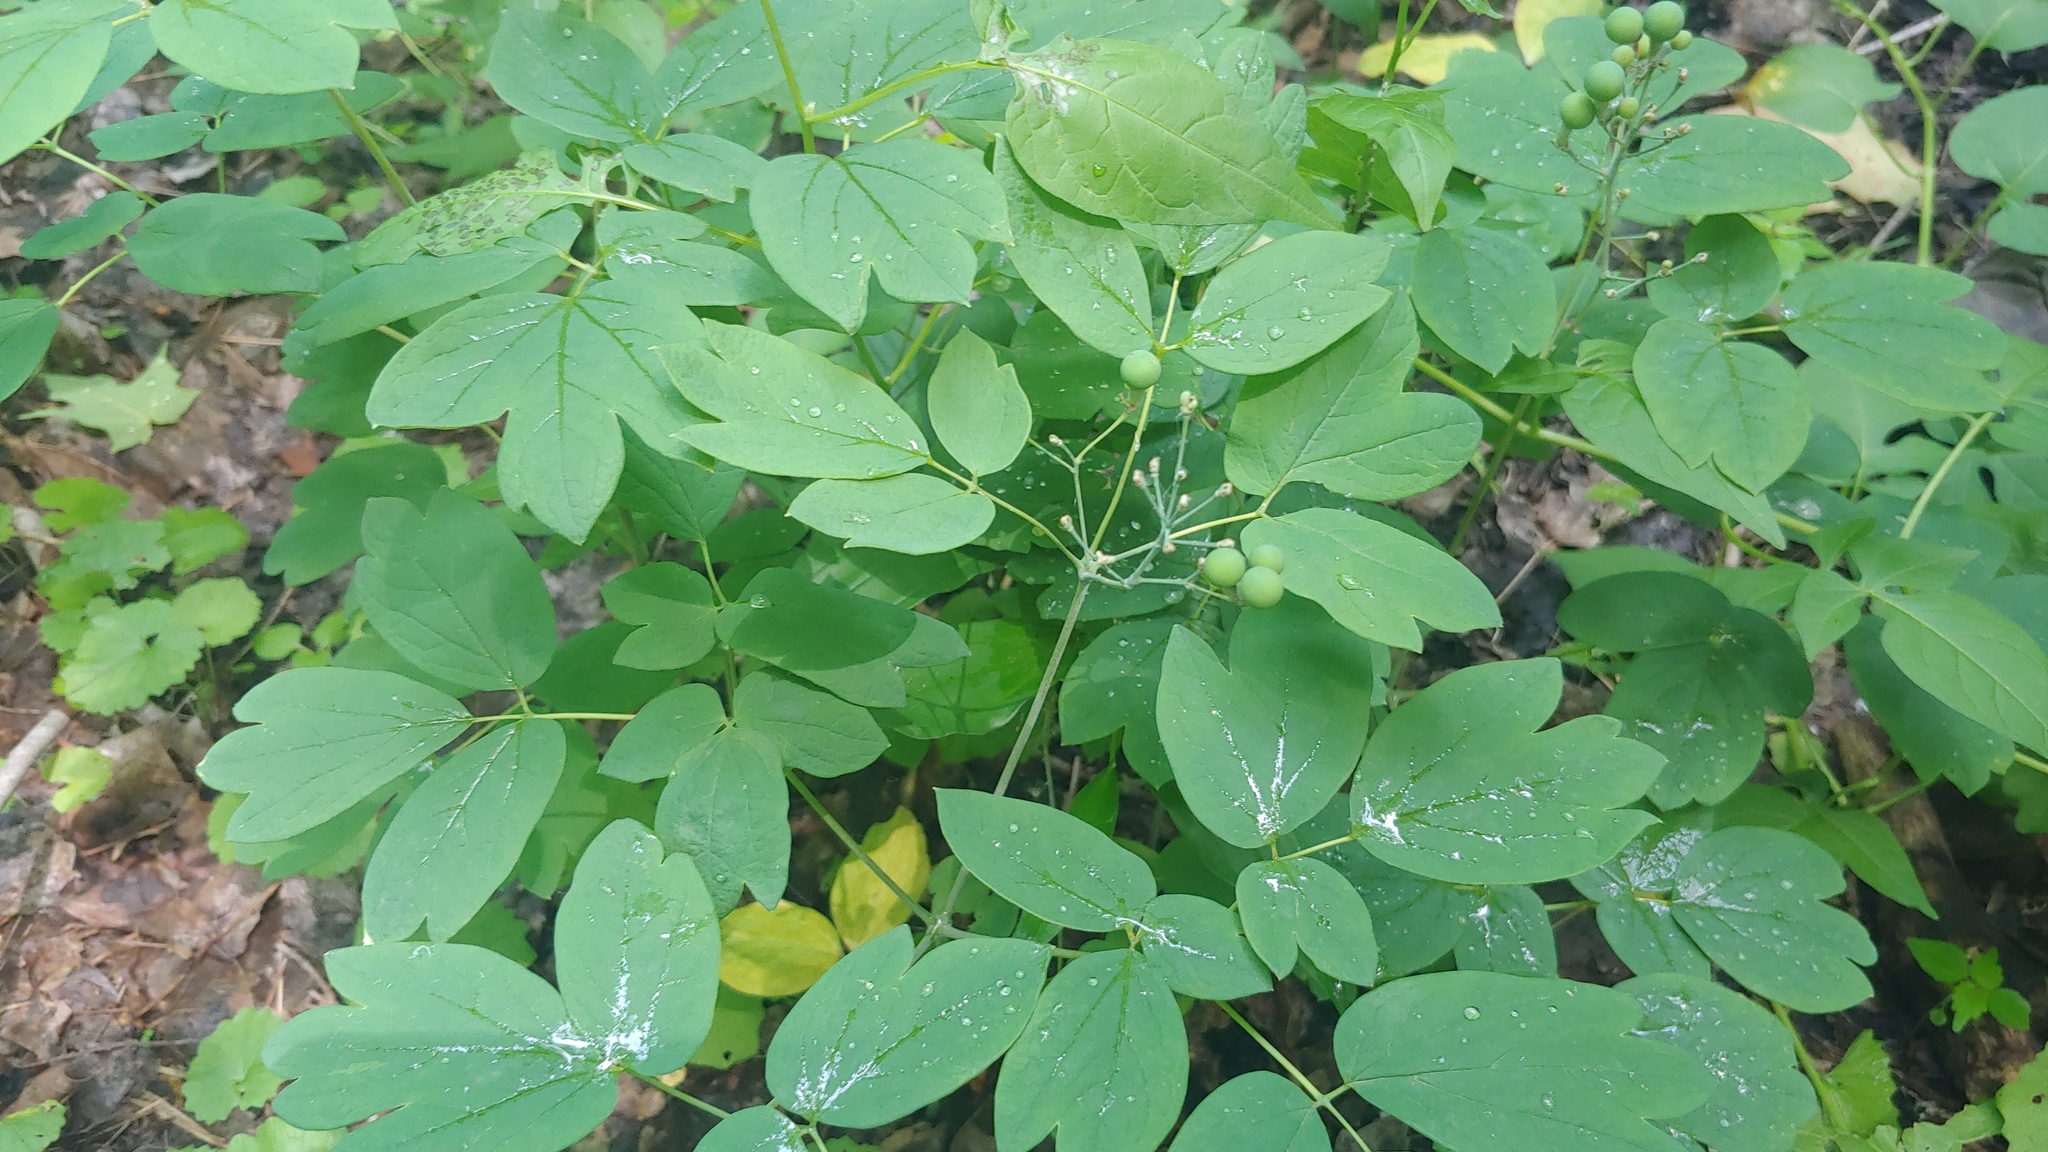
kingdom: Plantae
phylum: Tracheophyta
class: Magnoliopsida
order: Ranunculales
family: Berberidaceae
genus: Caulophyllum
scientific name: Caulophyllum thalictroides
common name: Blue cohosh
